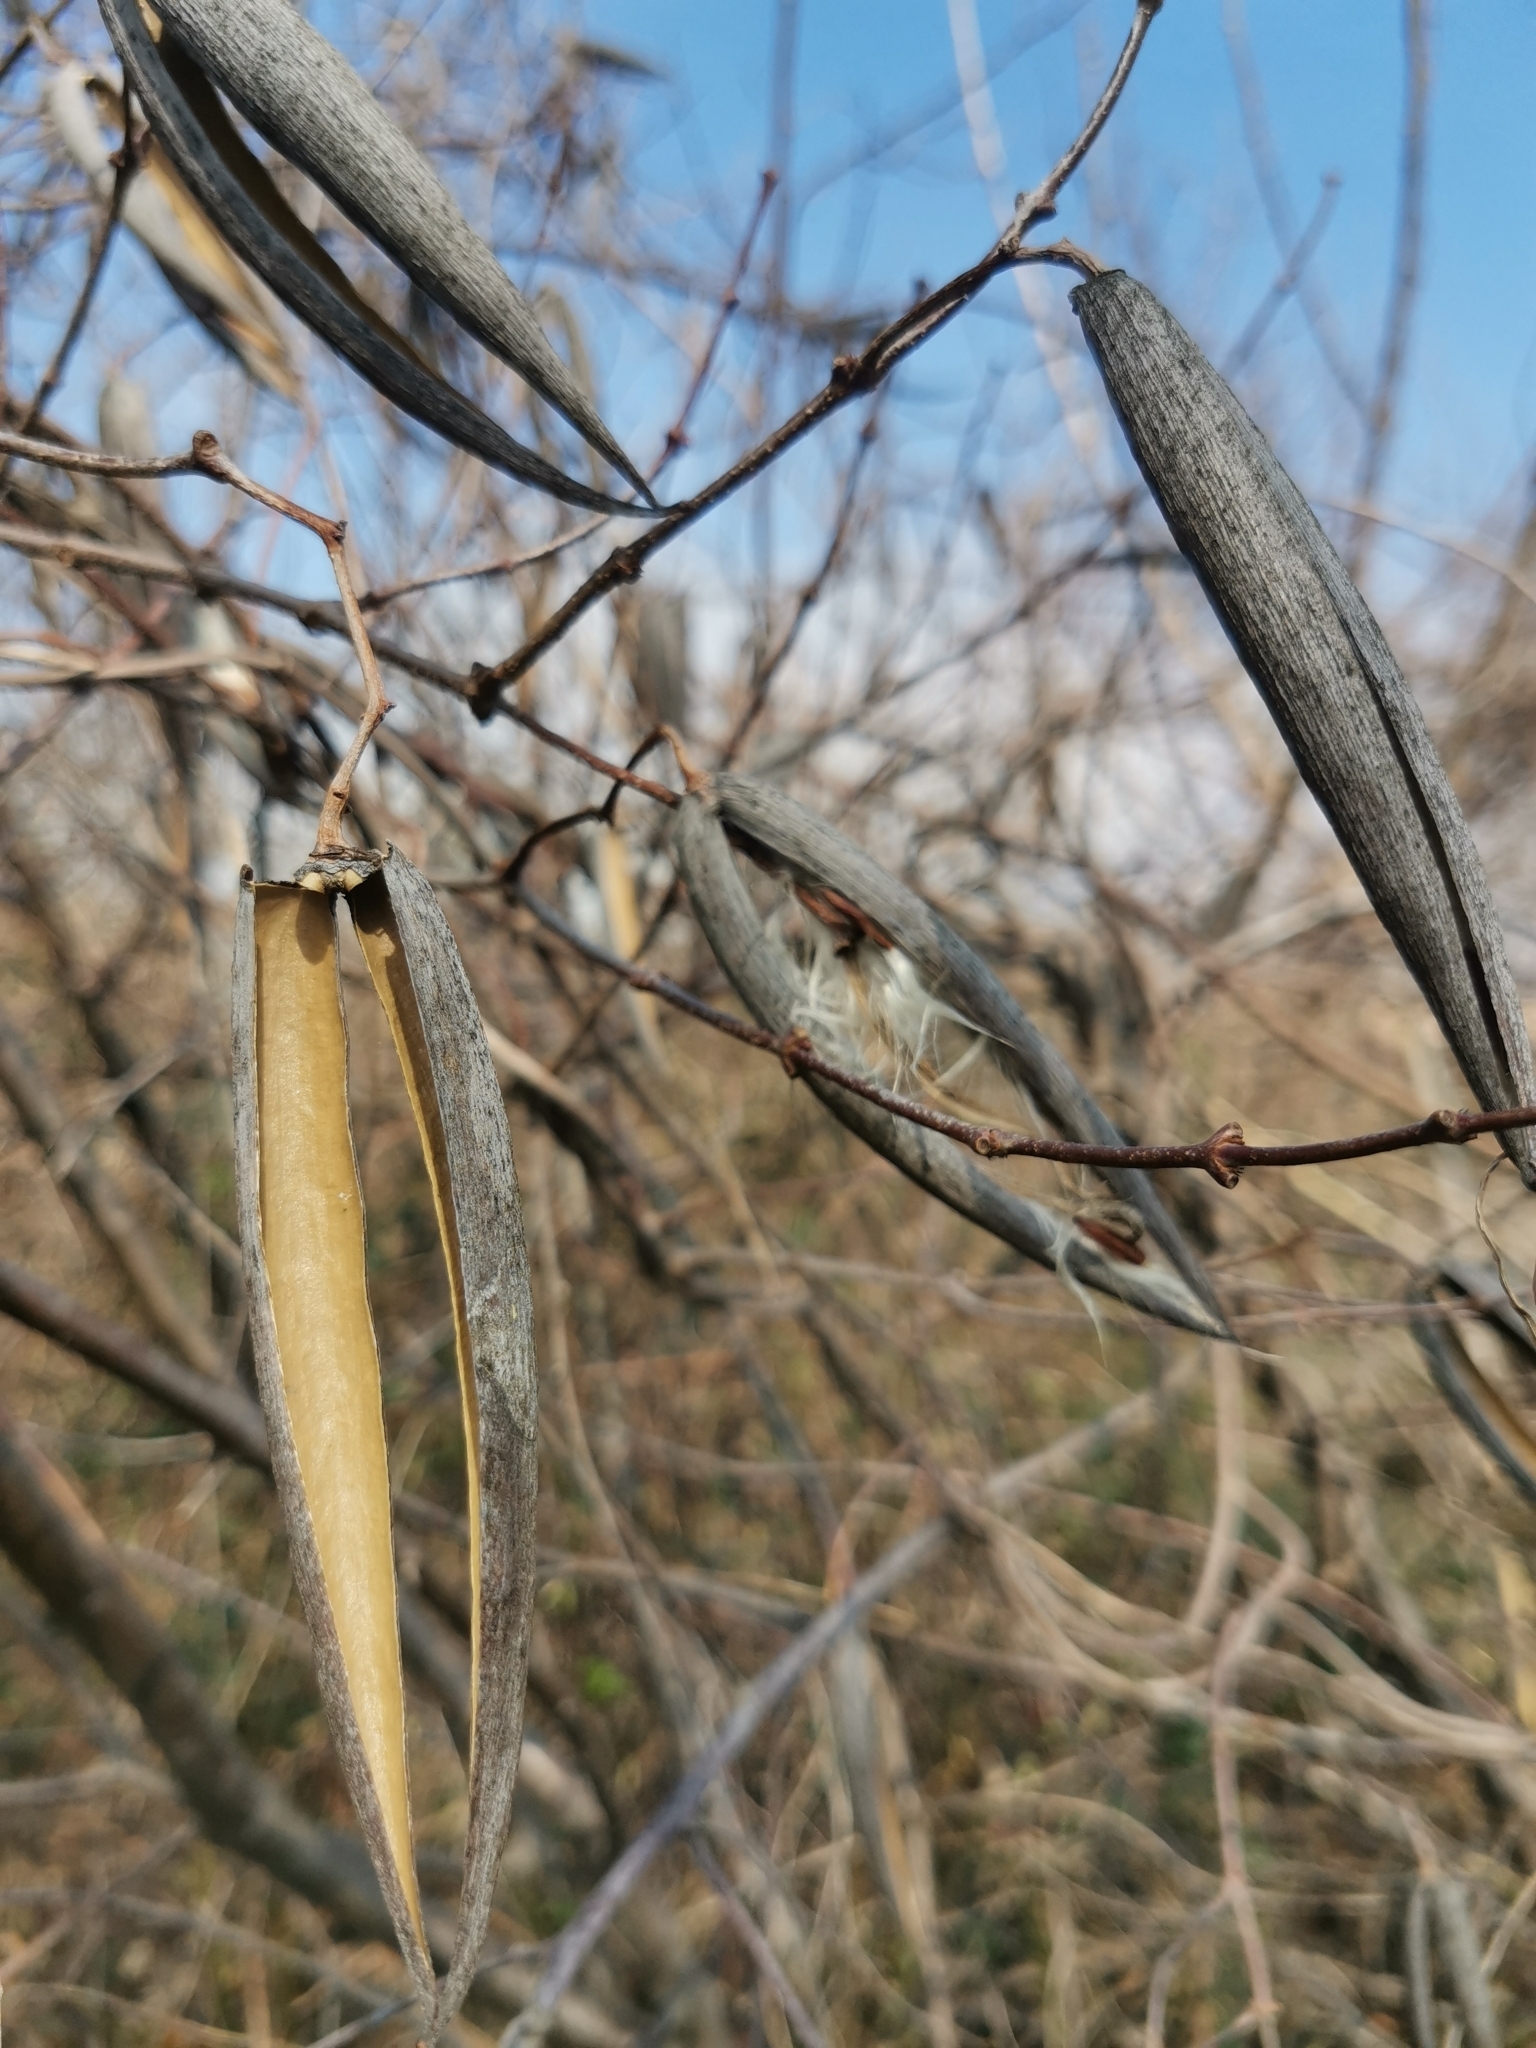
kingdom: Plantae
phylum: Tracheophyta
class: Magnoliopsida
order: Gentianales
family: Apocynaceae
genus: Periploca
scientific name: Periploca graeca
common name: Silkvine
